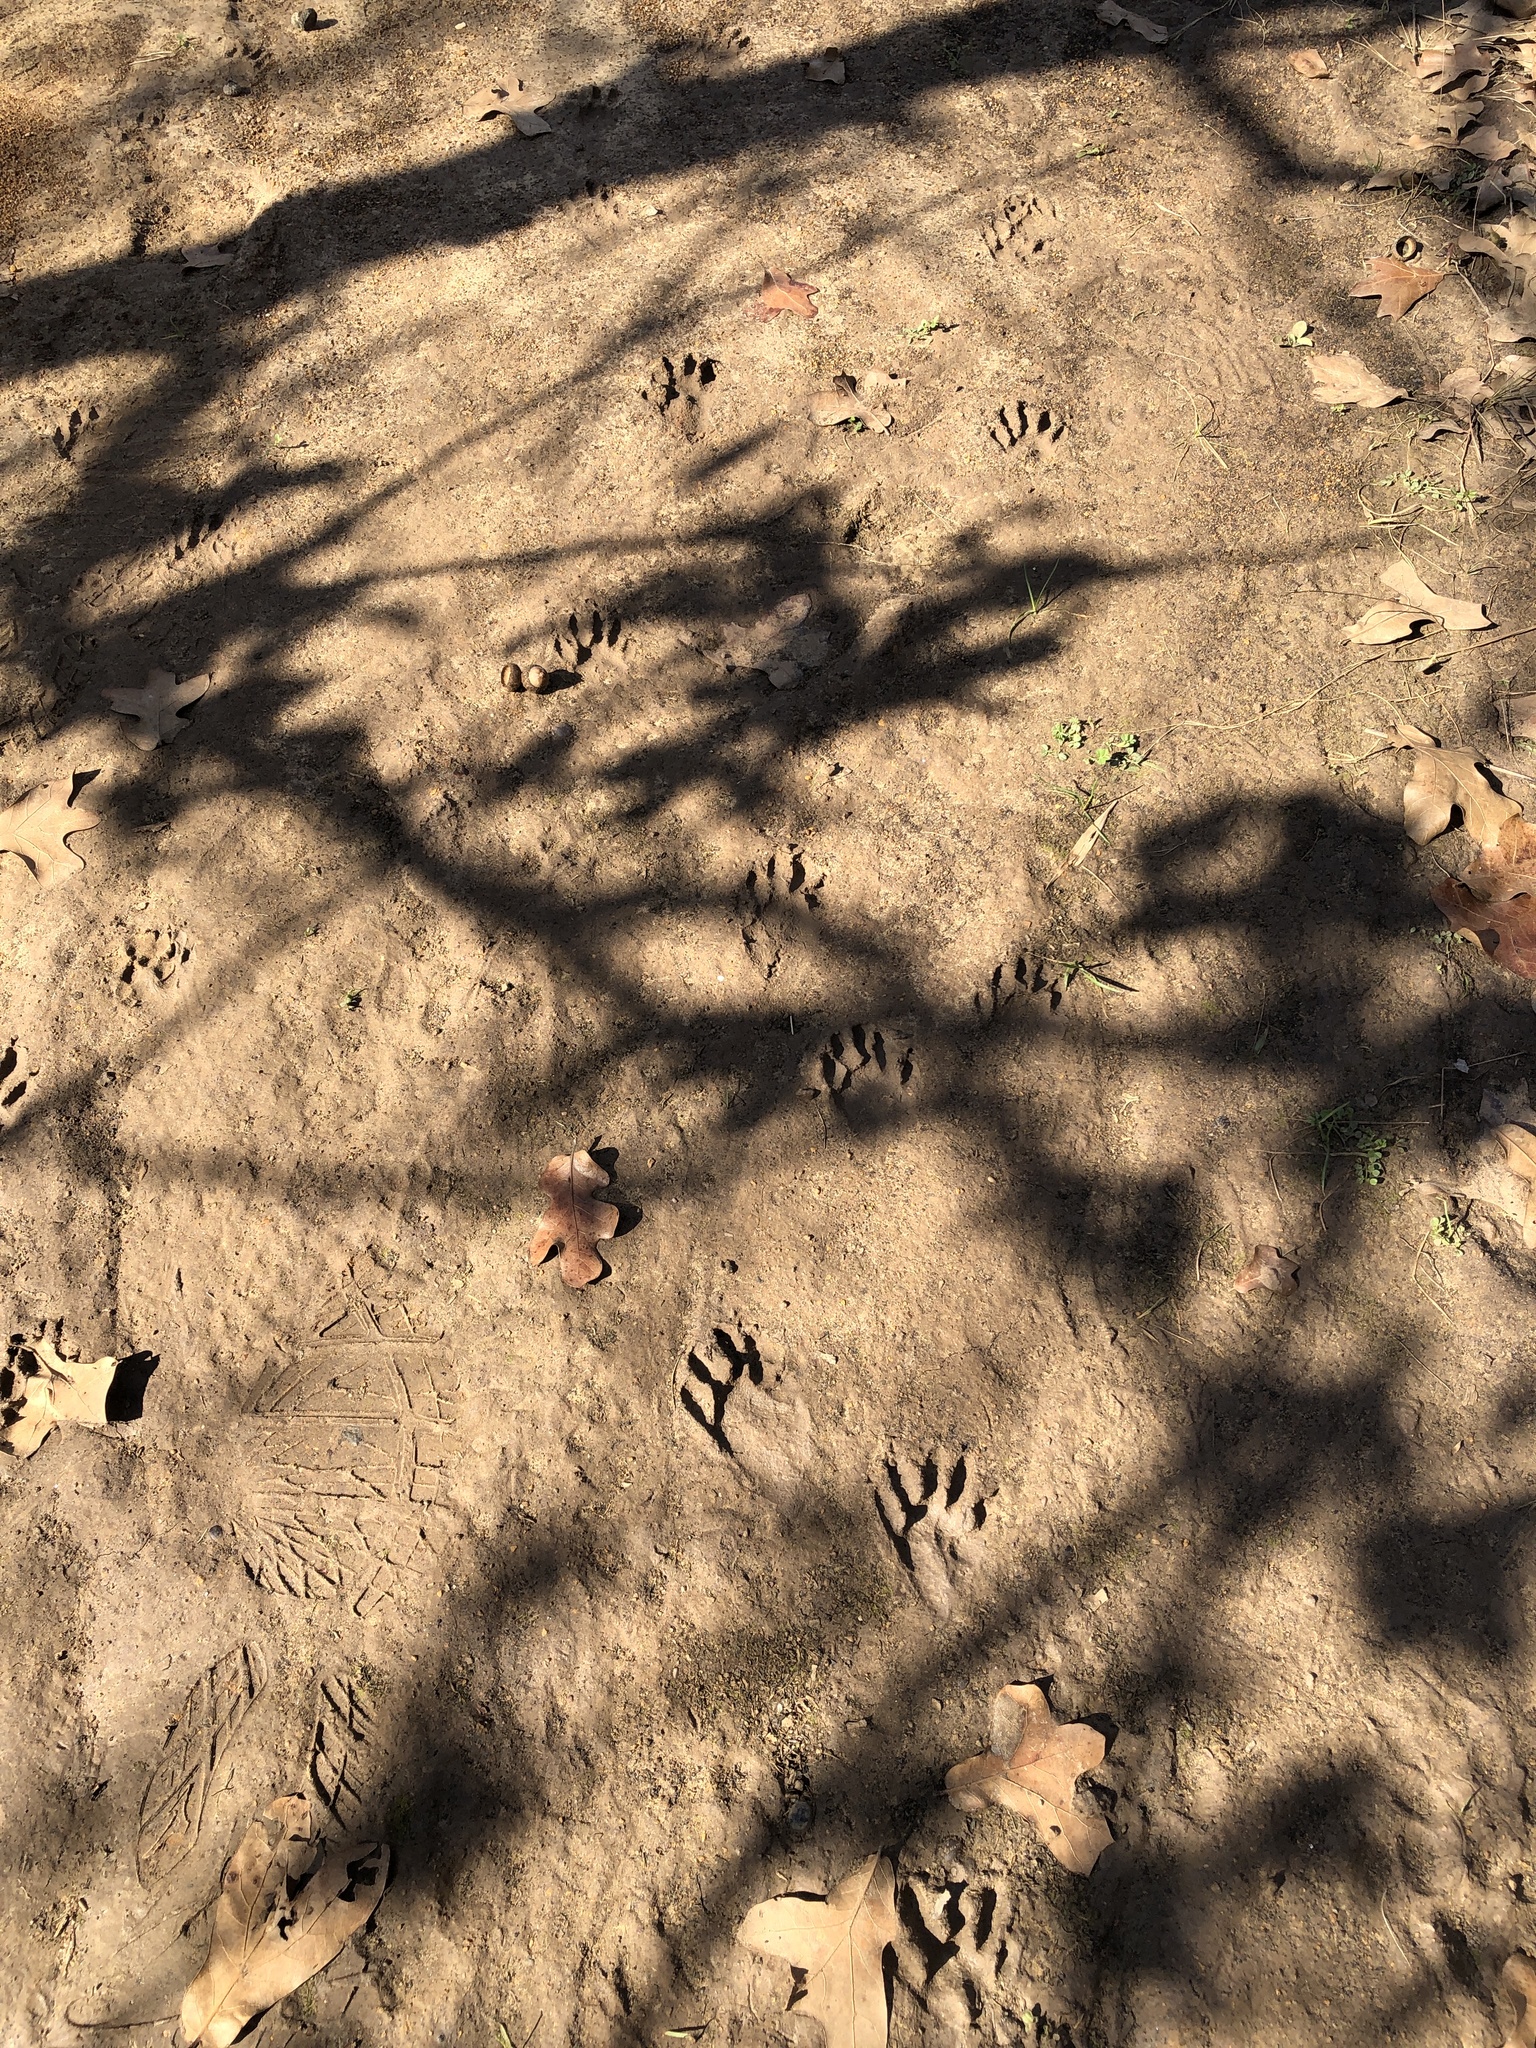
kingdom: Animalia
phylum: Chordata
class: Mammalia
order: Carnivora
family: Procyonidae
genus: Procyon
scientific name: Procyon lotor
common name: Raccoon
